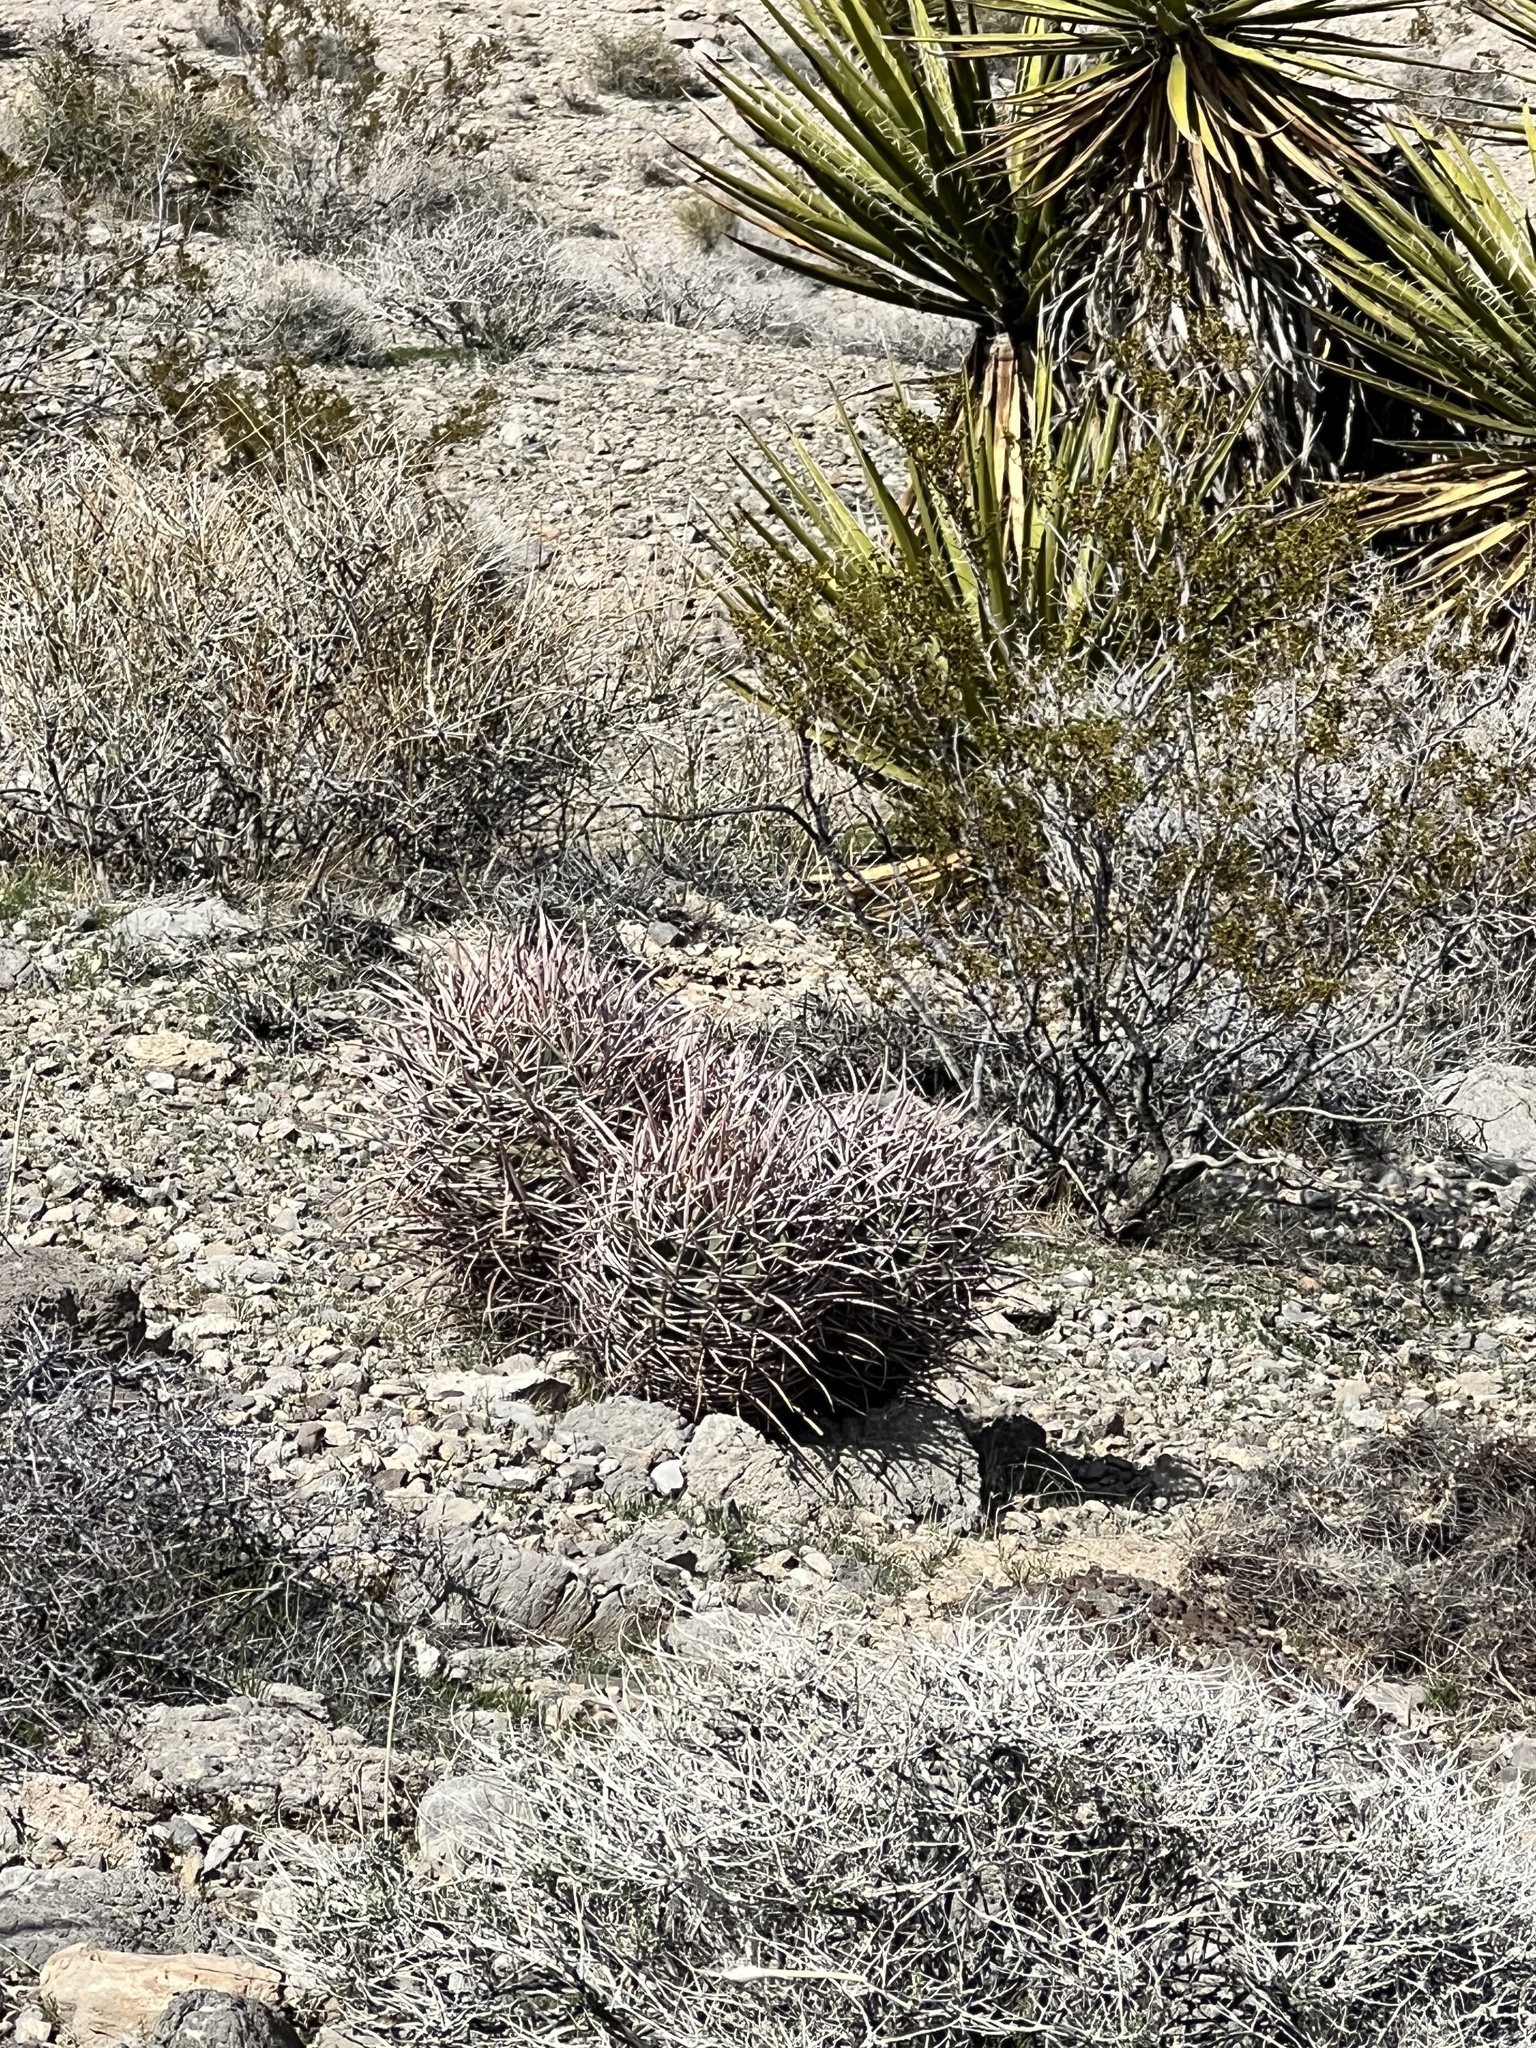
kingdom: Plantae
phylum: Tracheophyta
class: Magnoliopsida
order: Caryophyllales
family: Cactaceae
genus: Echinocactus
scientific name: Echinocactus polycephalus
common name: Cottontop cactus
